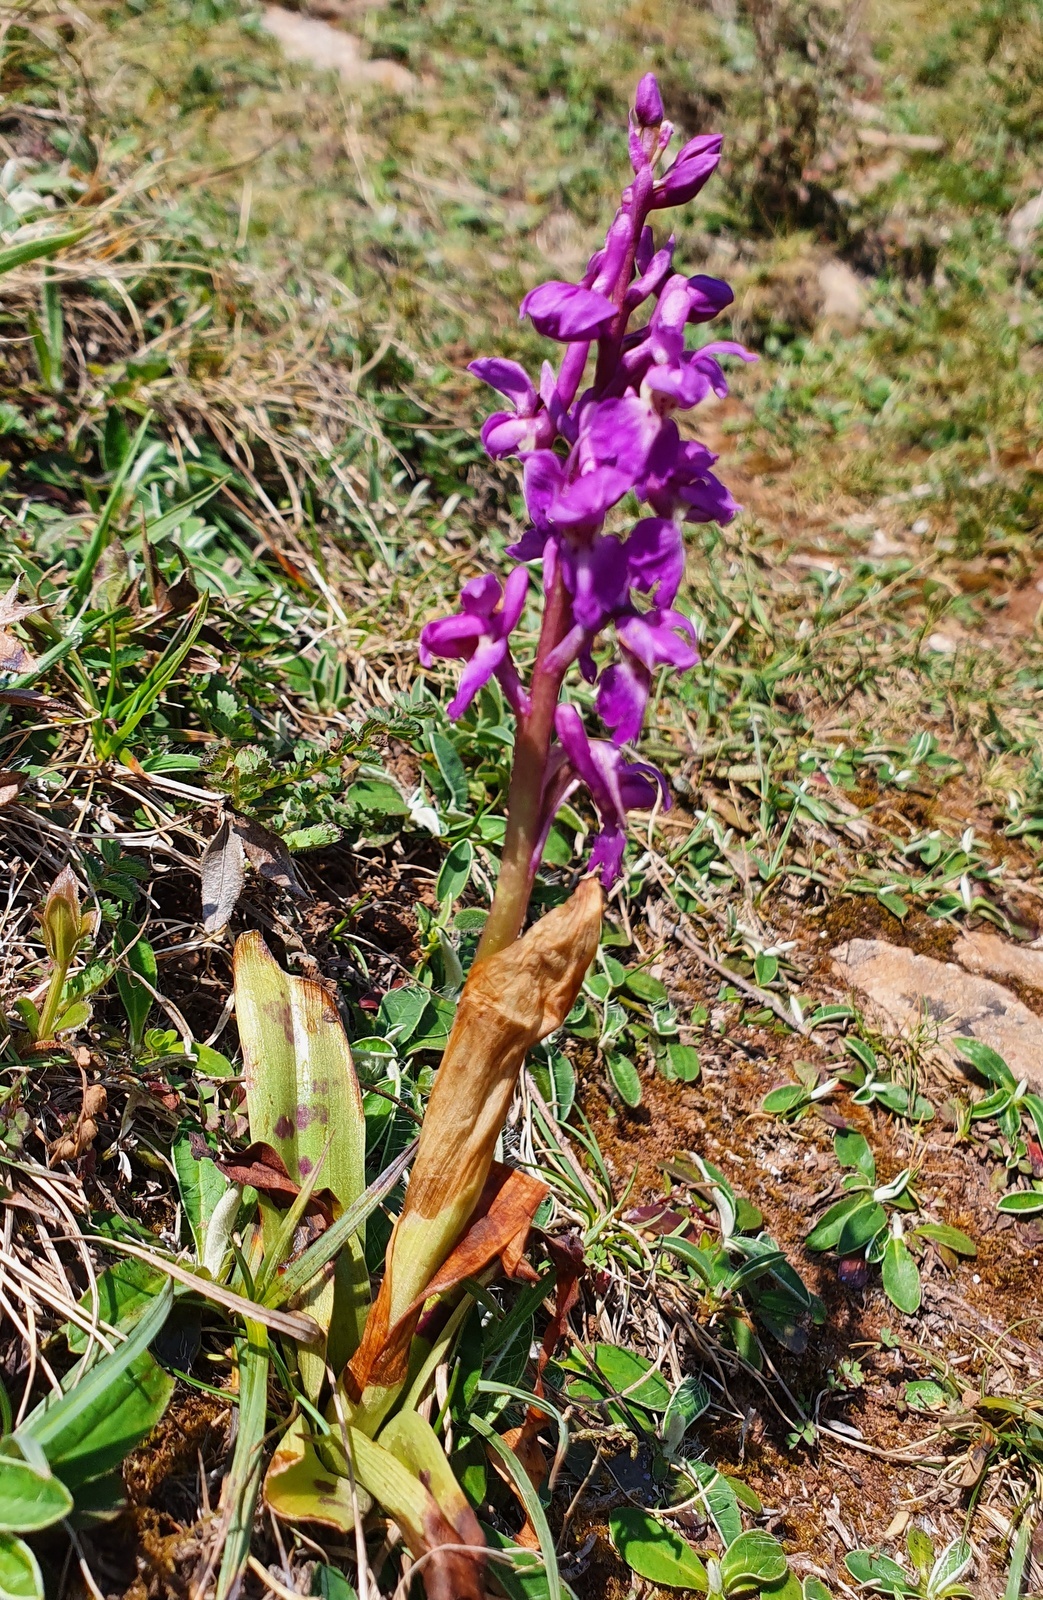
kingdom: Plantae
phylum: Tracheophyta
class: Liliopsida
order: Asparagales
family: Orchidaceae
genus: Orchis
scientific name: Orchis mascula
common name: Early-purple orchid
